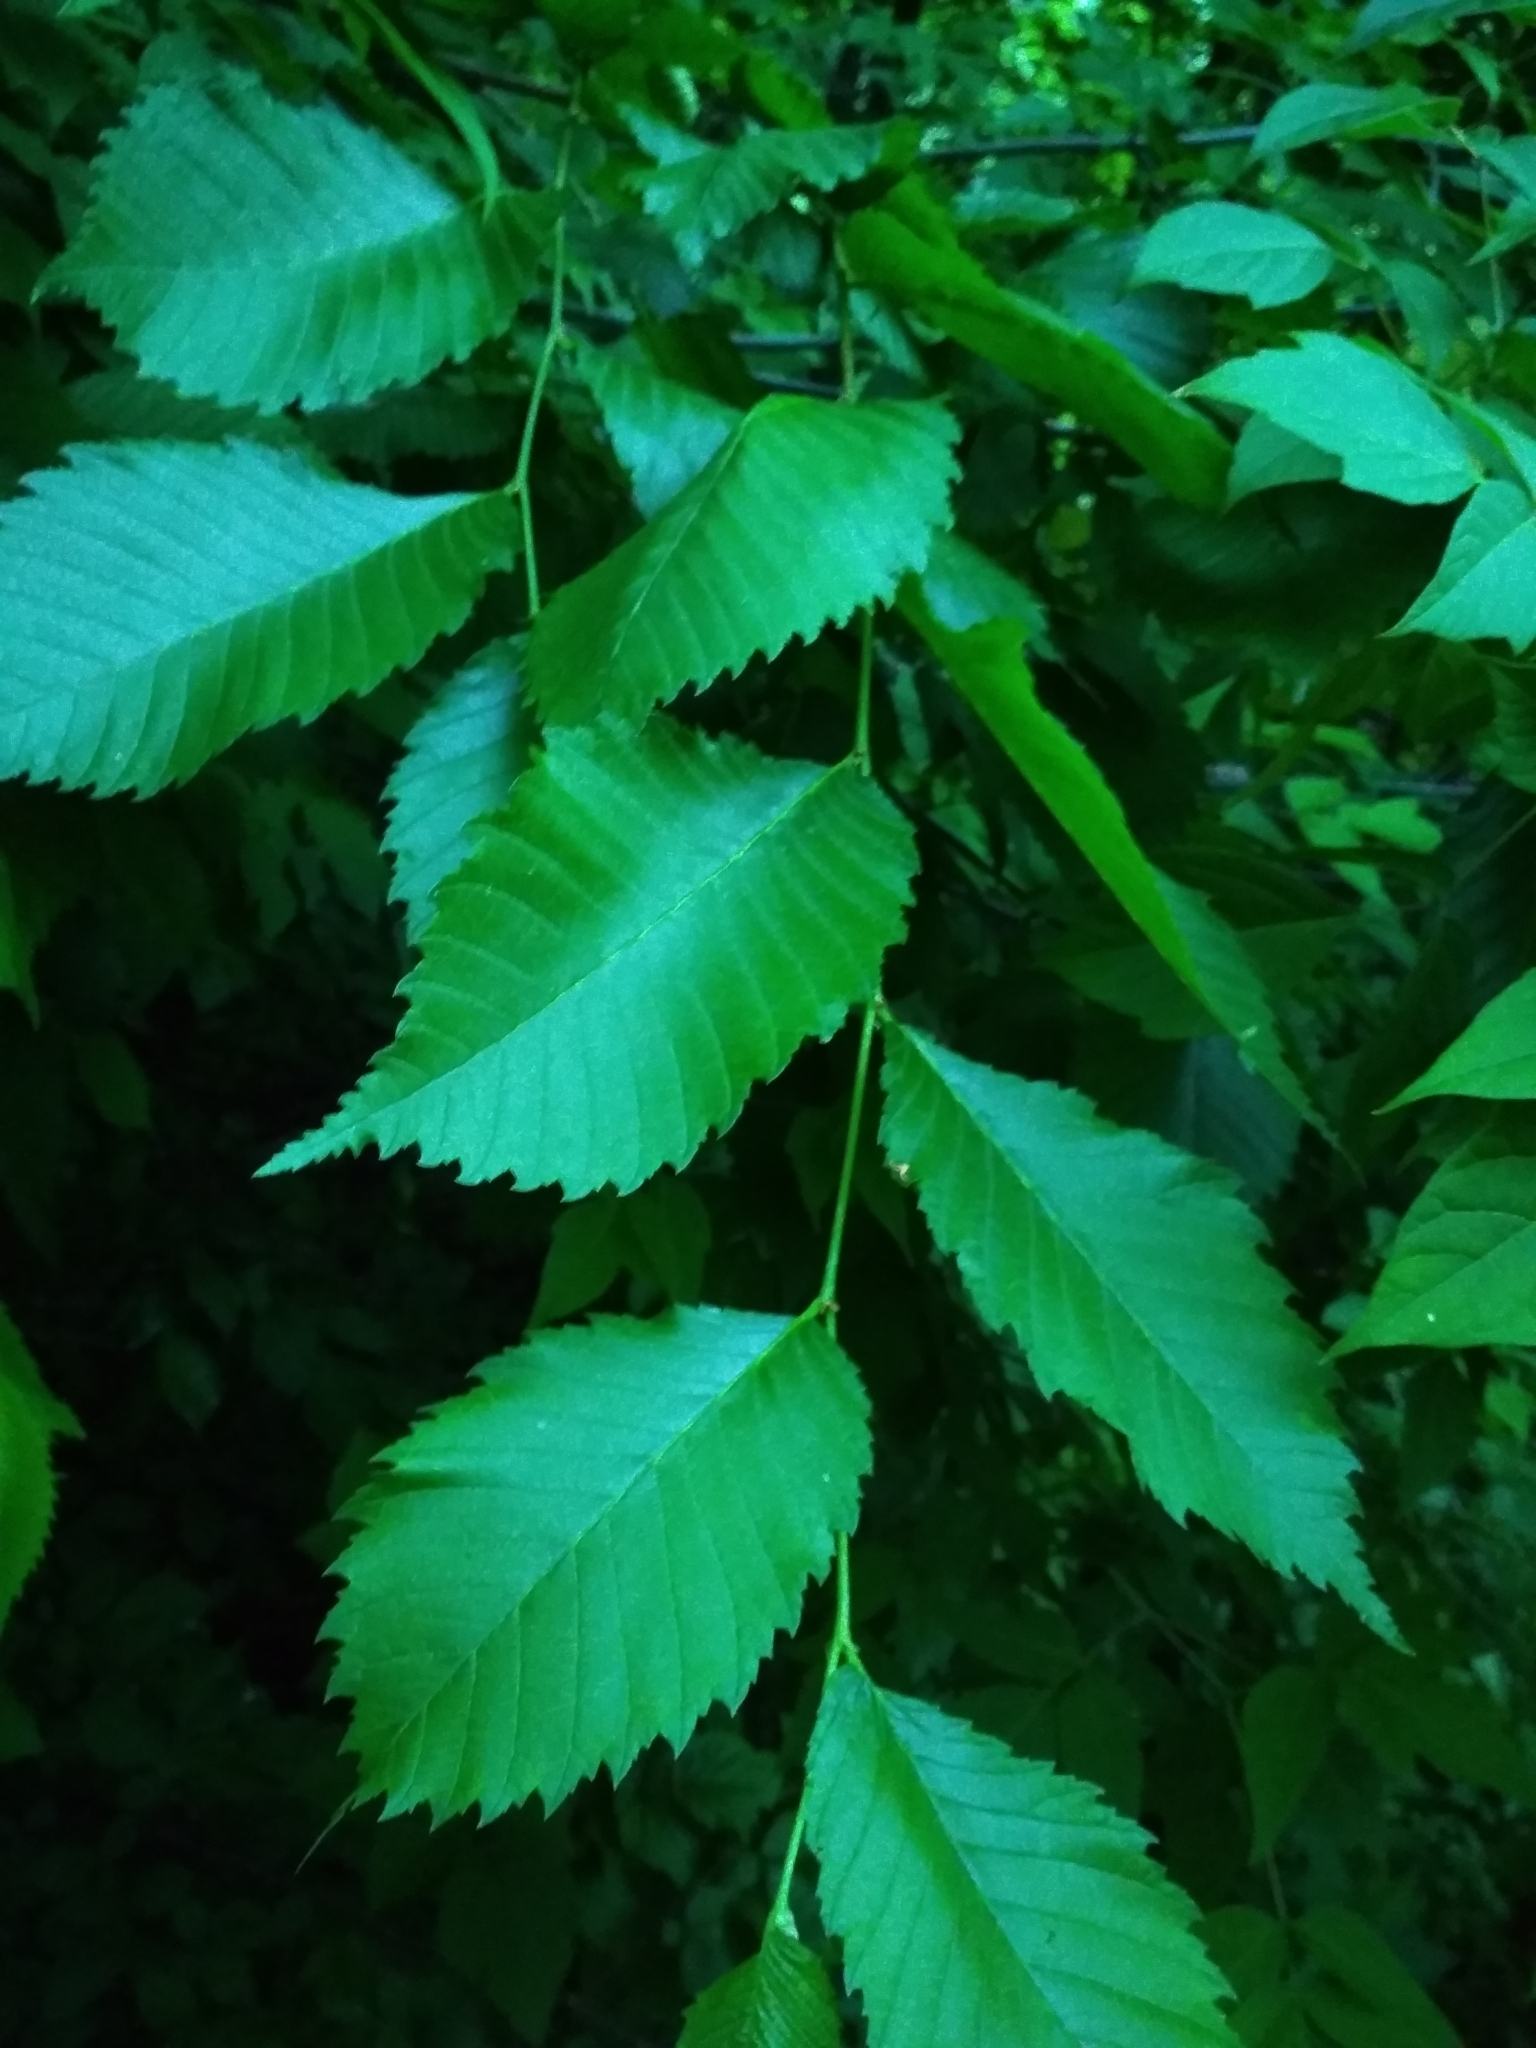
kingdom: Plantae
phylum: Tracheophyta
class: Magnoliopsida
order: Rosales
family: Ulmaceae
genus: Ulmus
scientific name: Ulmus laevis
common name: European white-elm
